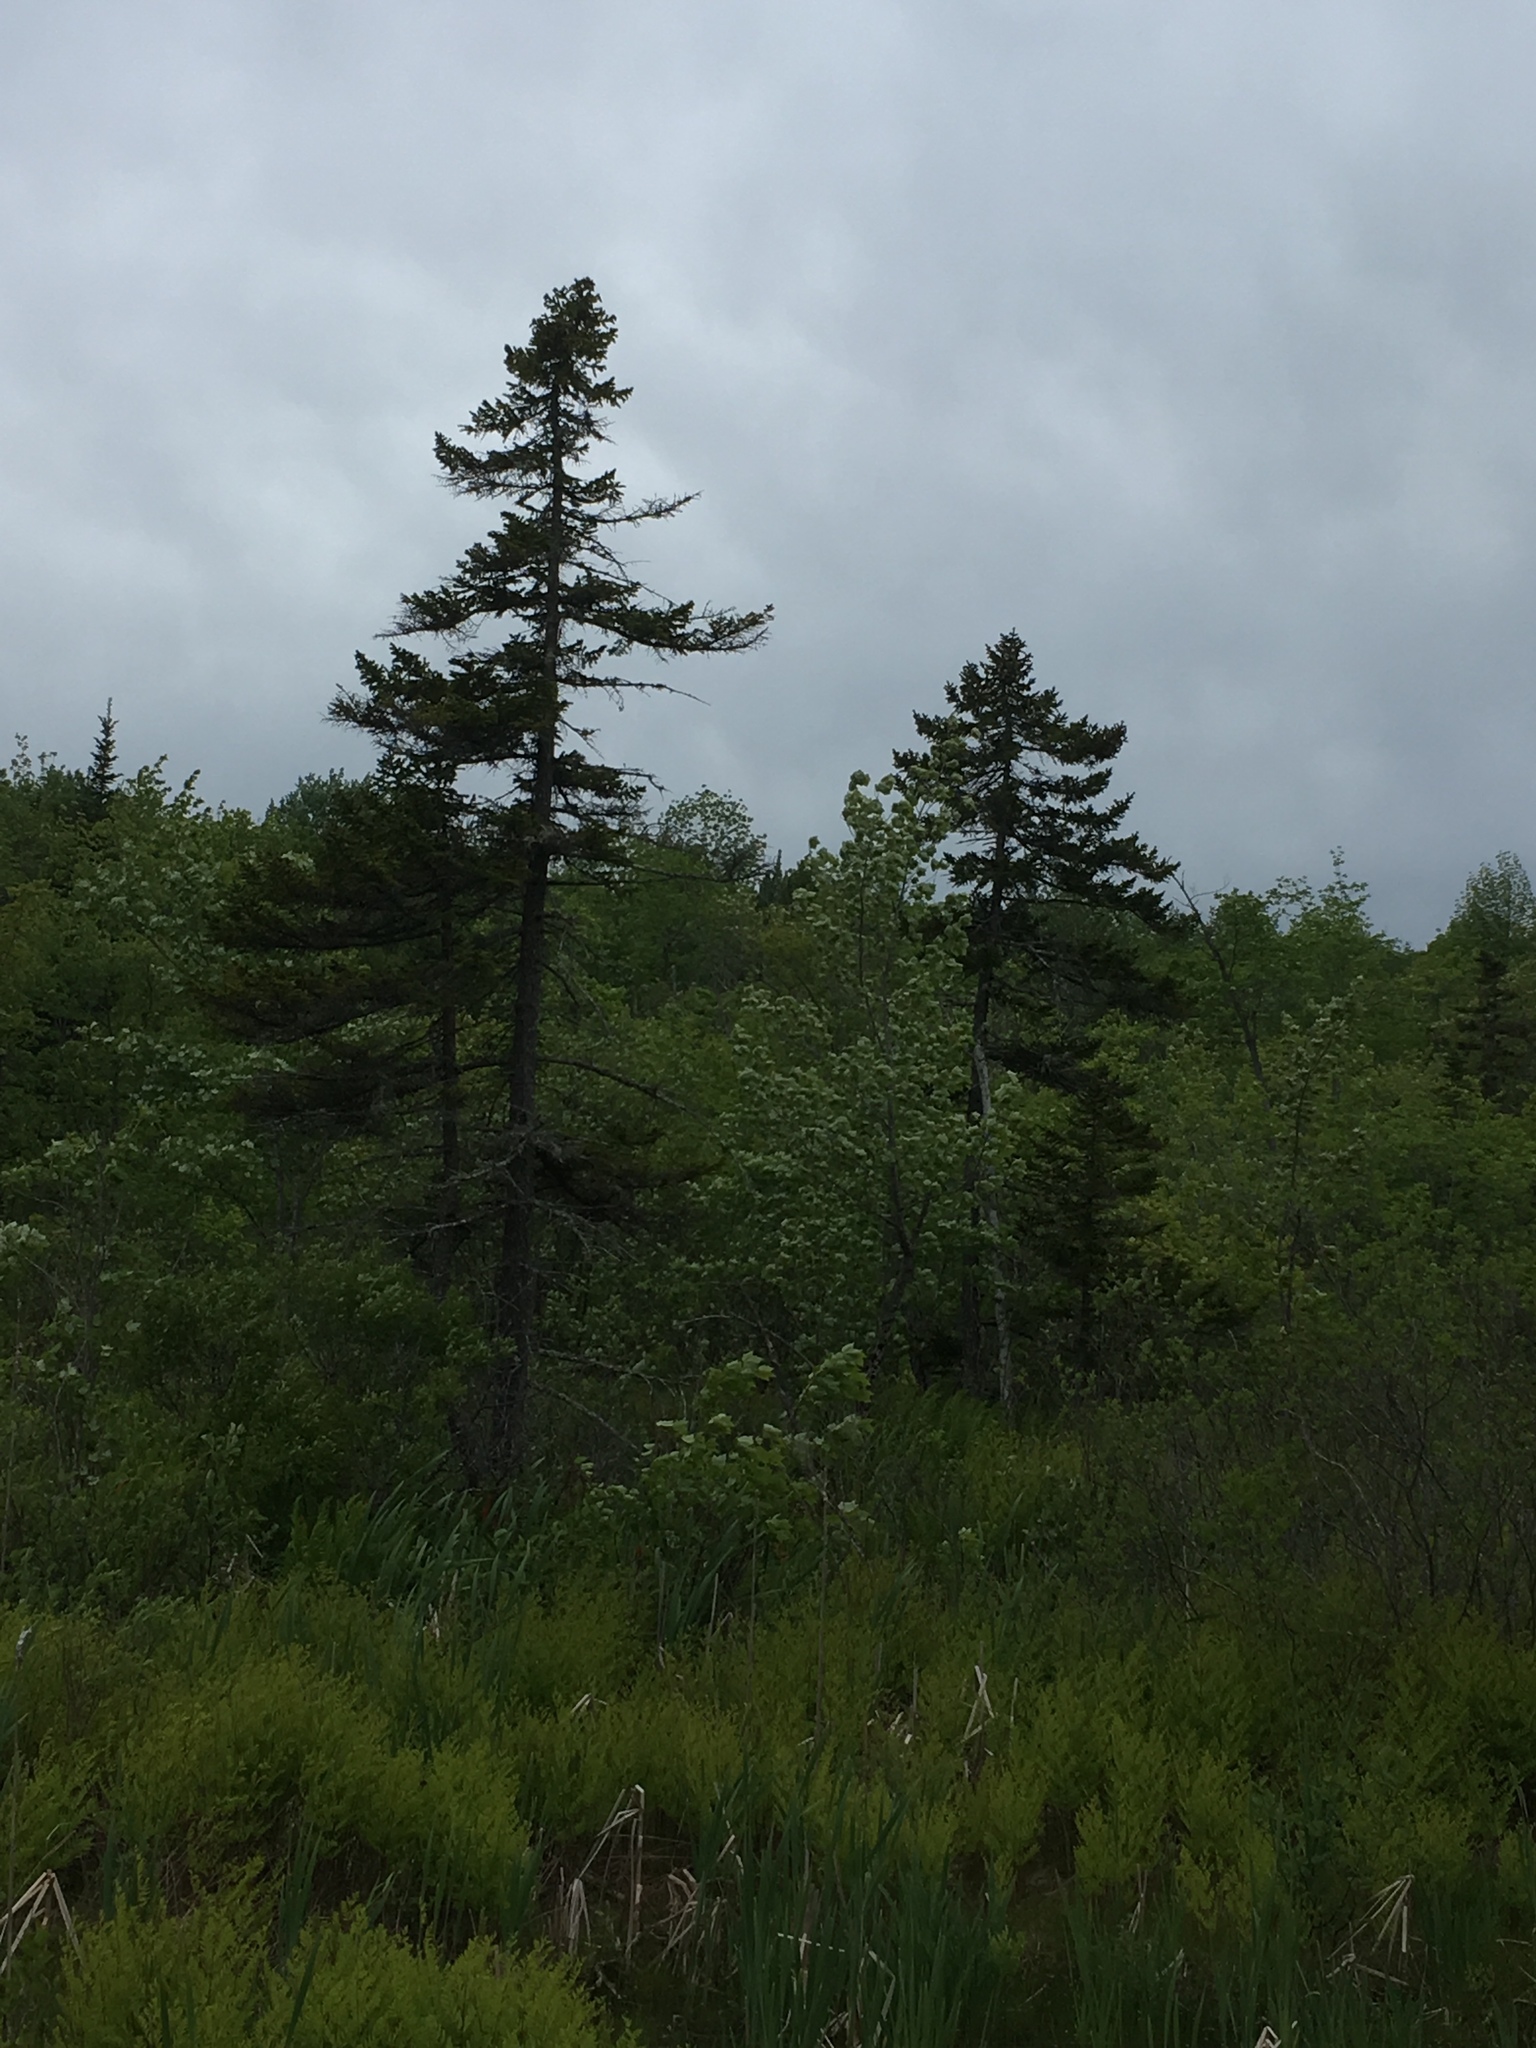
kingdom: Plantae
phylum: Tracheophyta
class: Pinopsida
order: Pinales
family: Pinaceae
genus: Picea
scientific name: Picea rubens
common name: Red spruce
